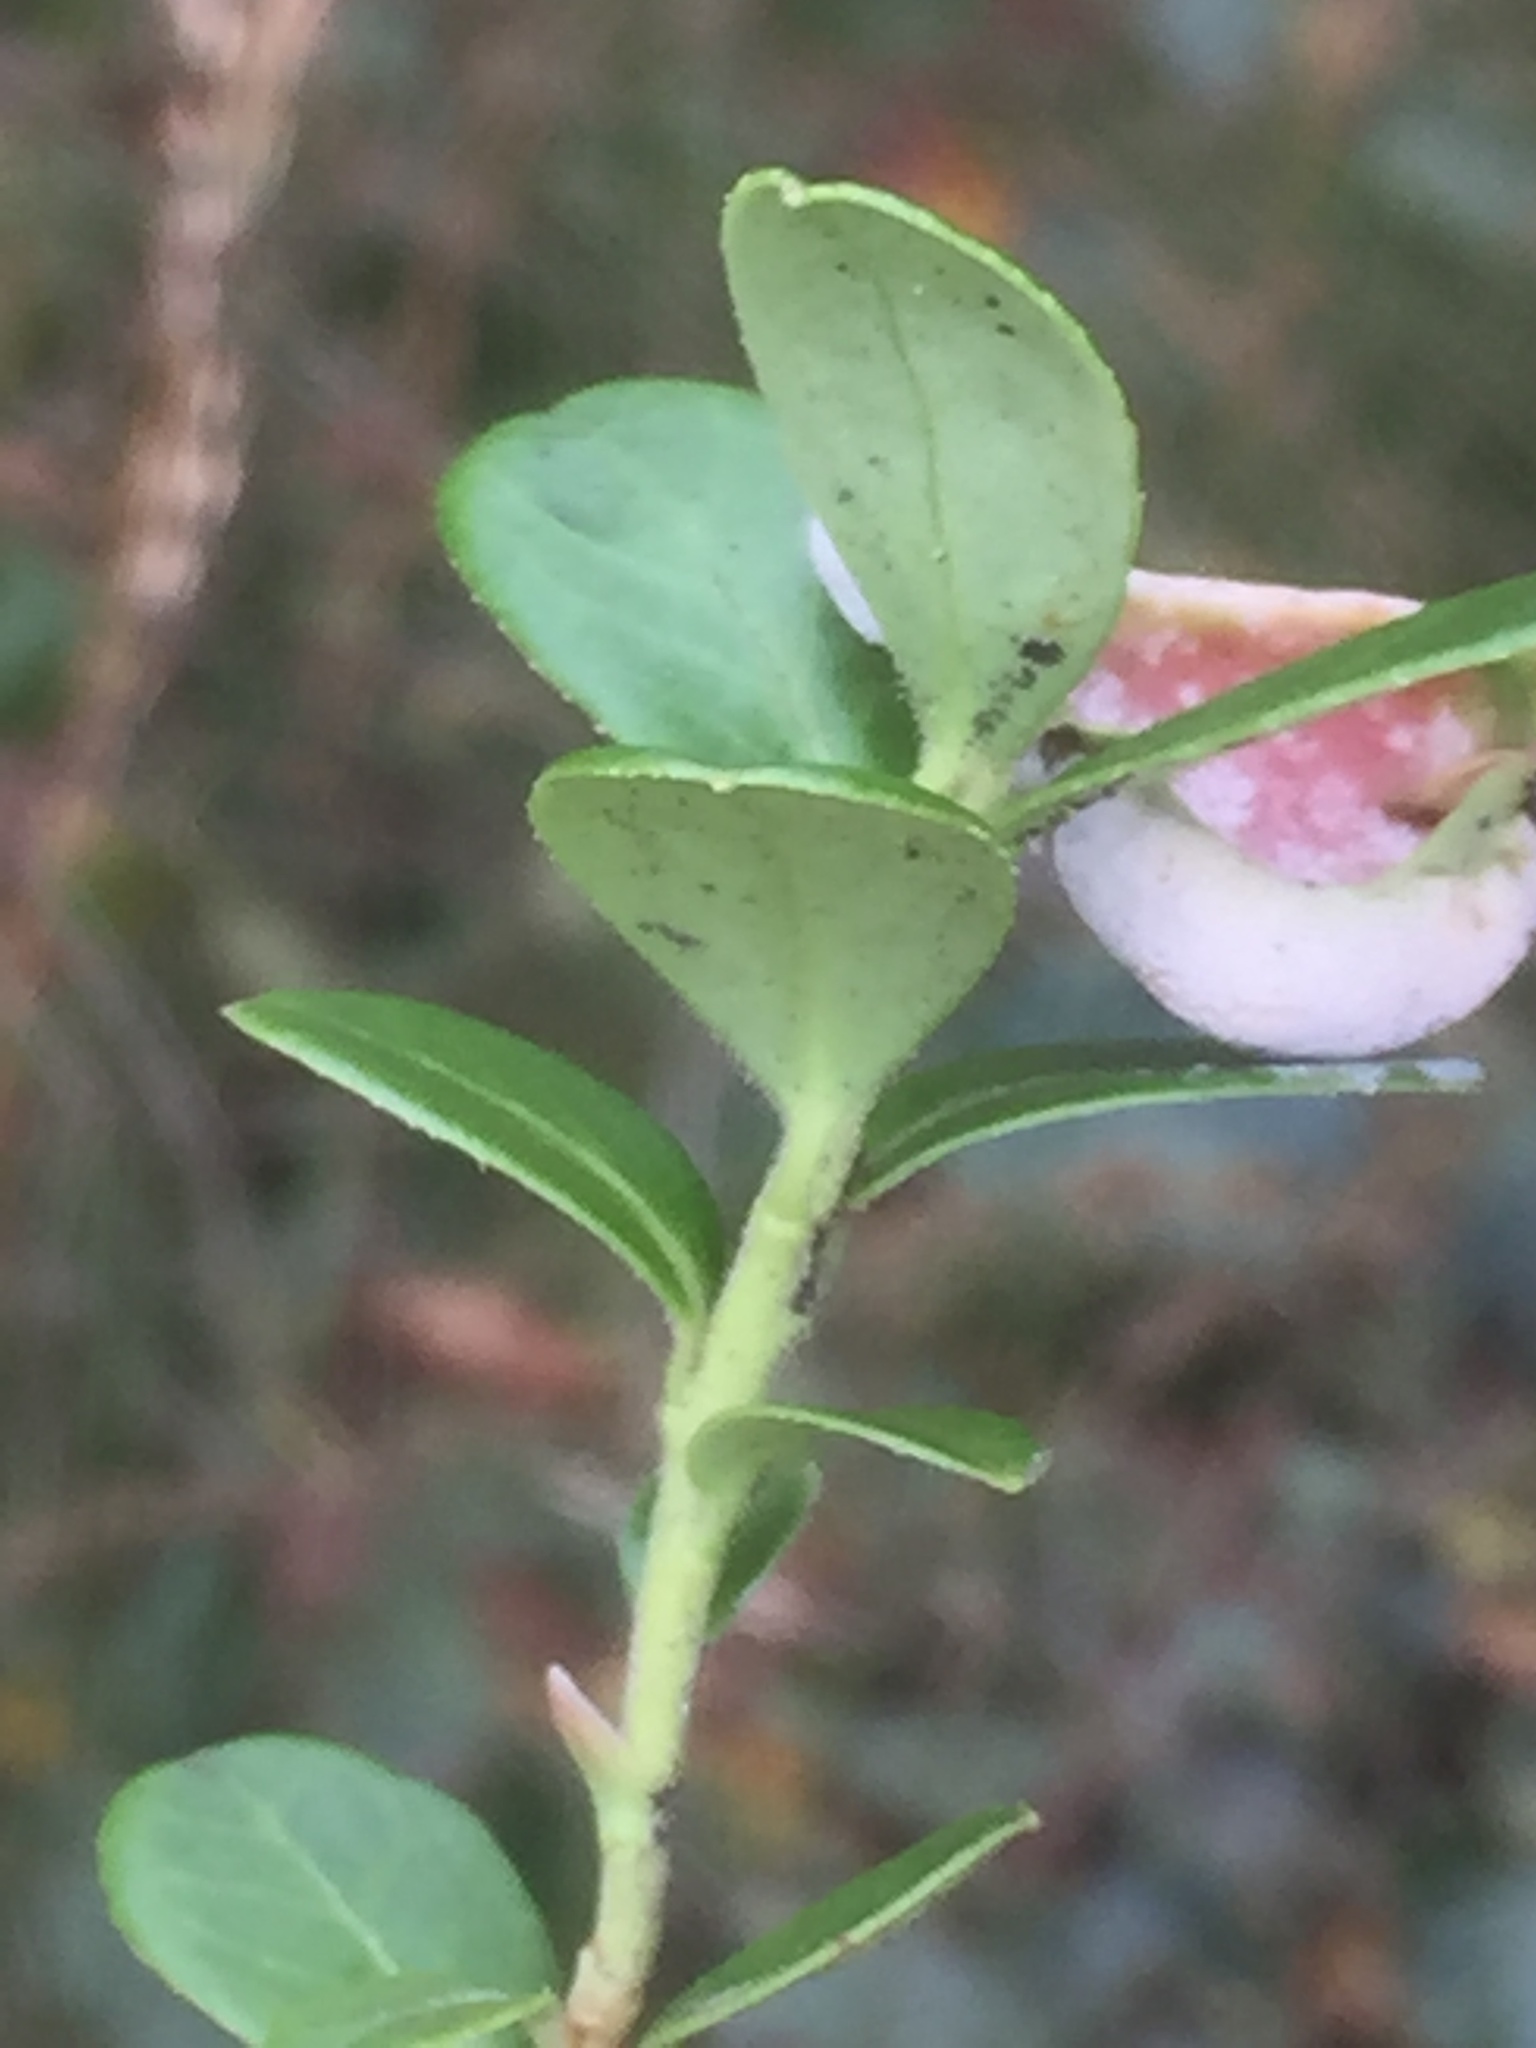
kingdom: Plantae
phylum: Tracheophyta
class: Magnoliopsida
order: Ericales
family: Ericaceae
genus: Vaccinium
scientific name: Vaccinium vitis-idaea
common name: Cowberry
